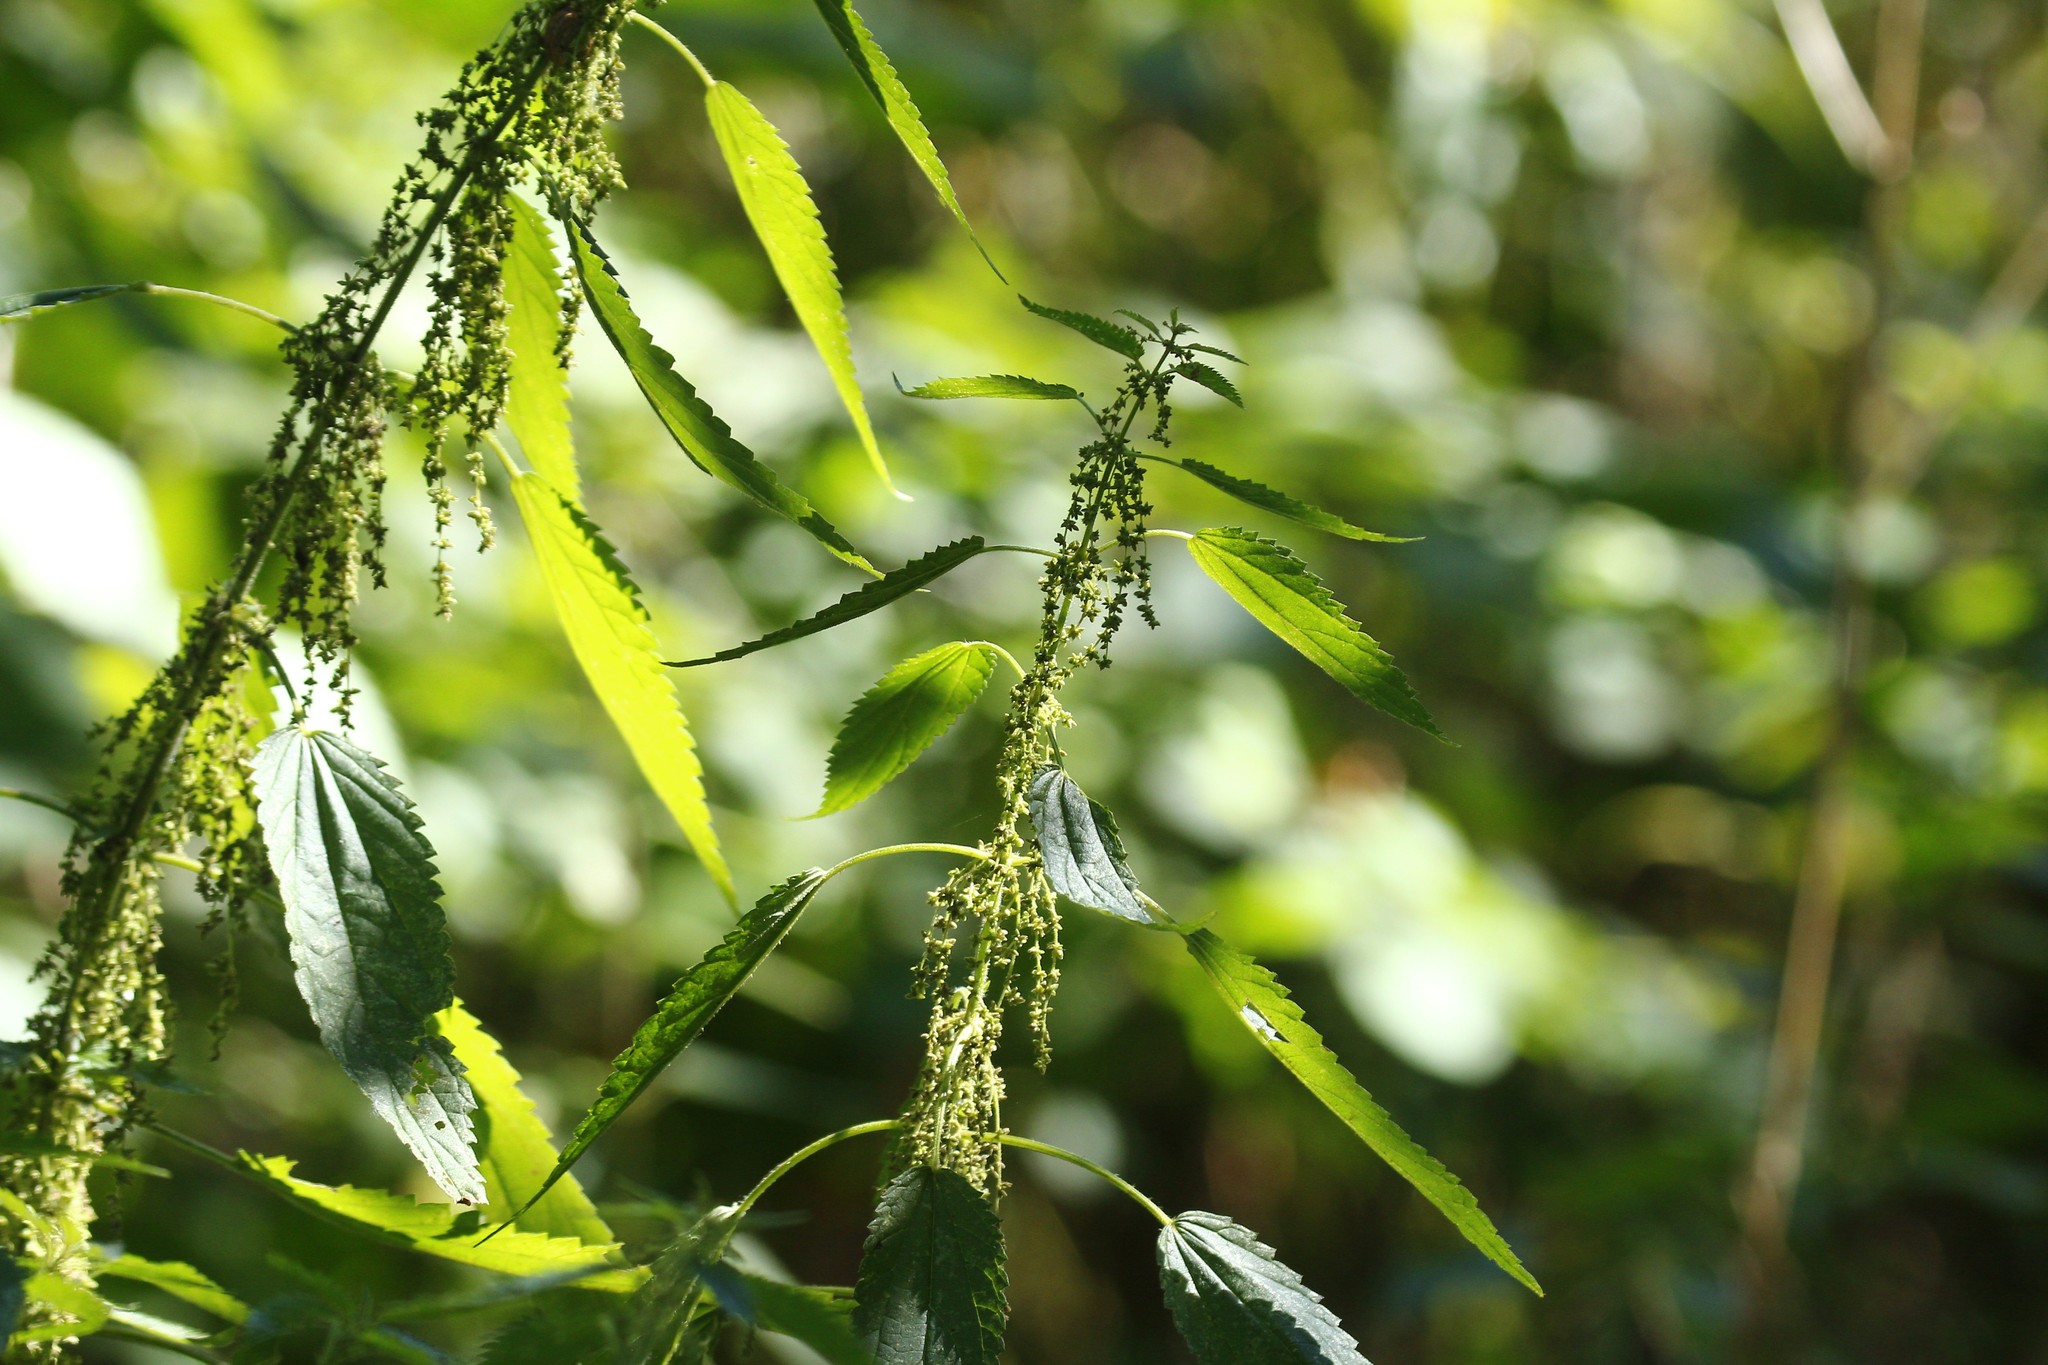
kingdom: Plantae
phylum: Tracheophyta
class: Magnoliopsida
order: Rosales
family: Urticaceae
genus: Urtica
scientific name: Urtica dioica
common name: Common nettle
